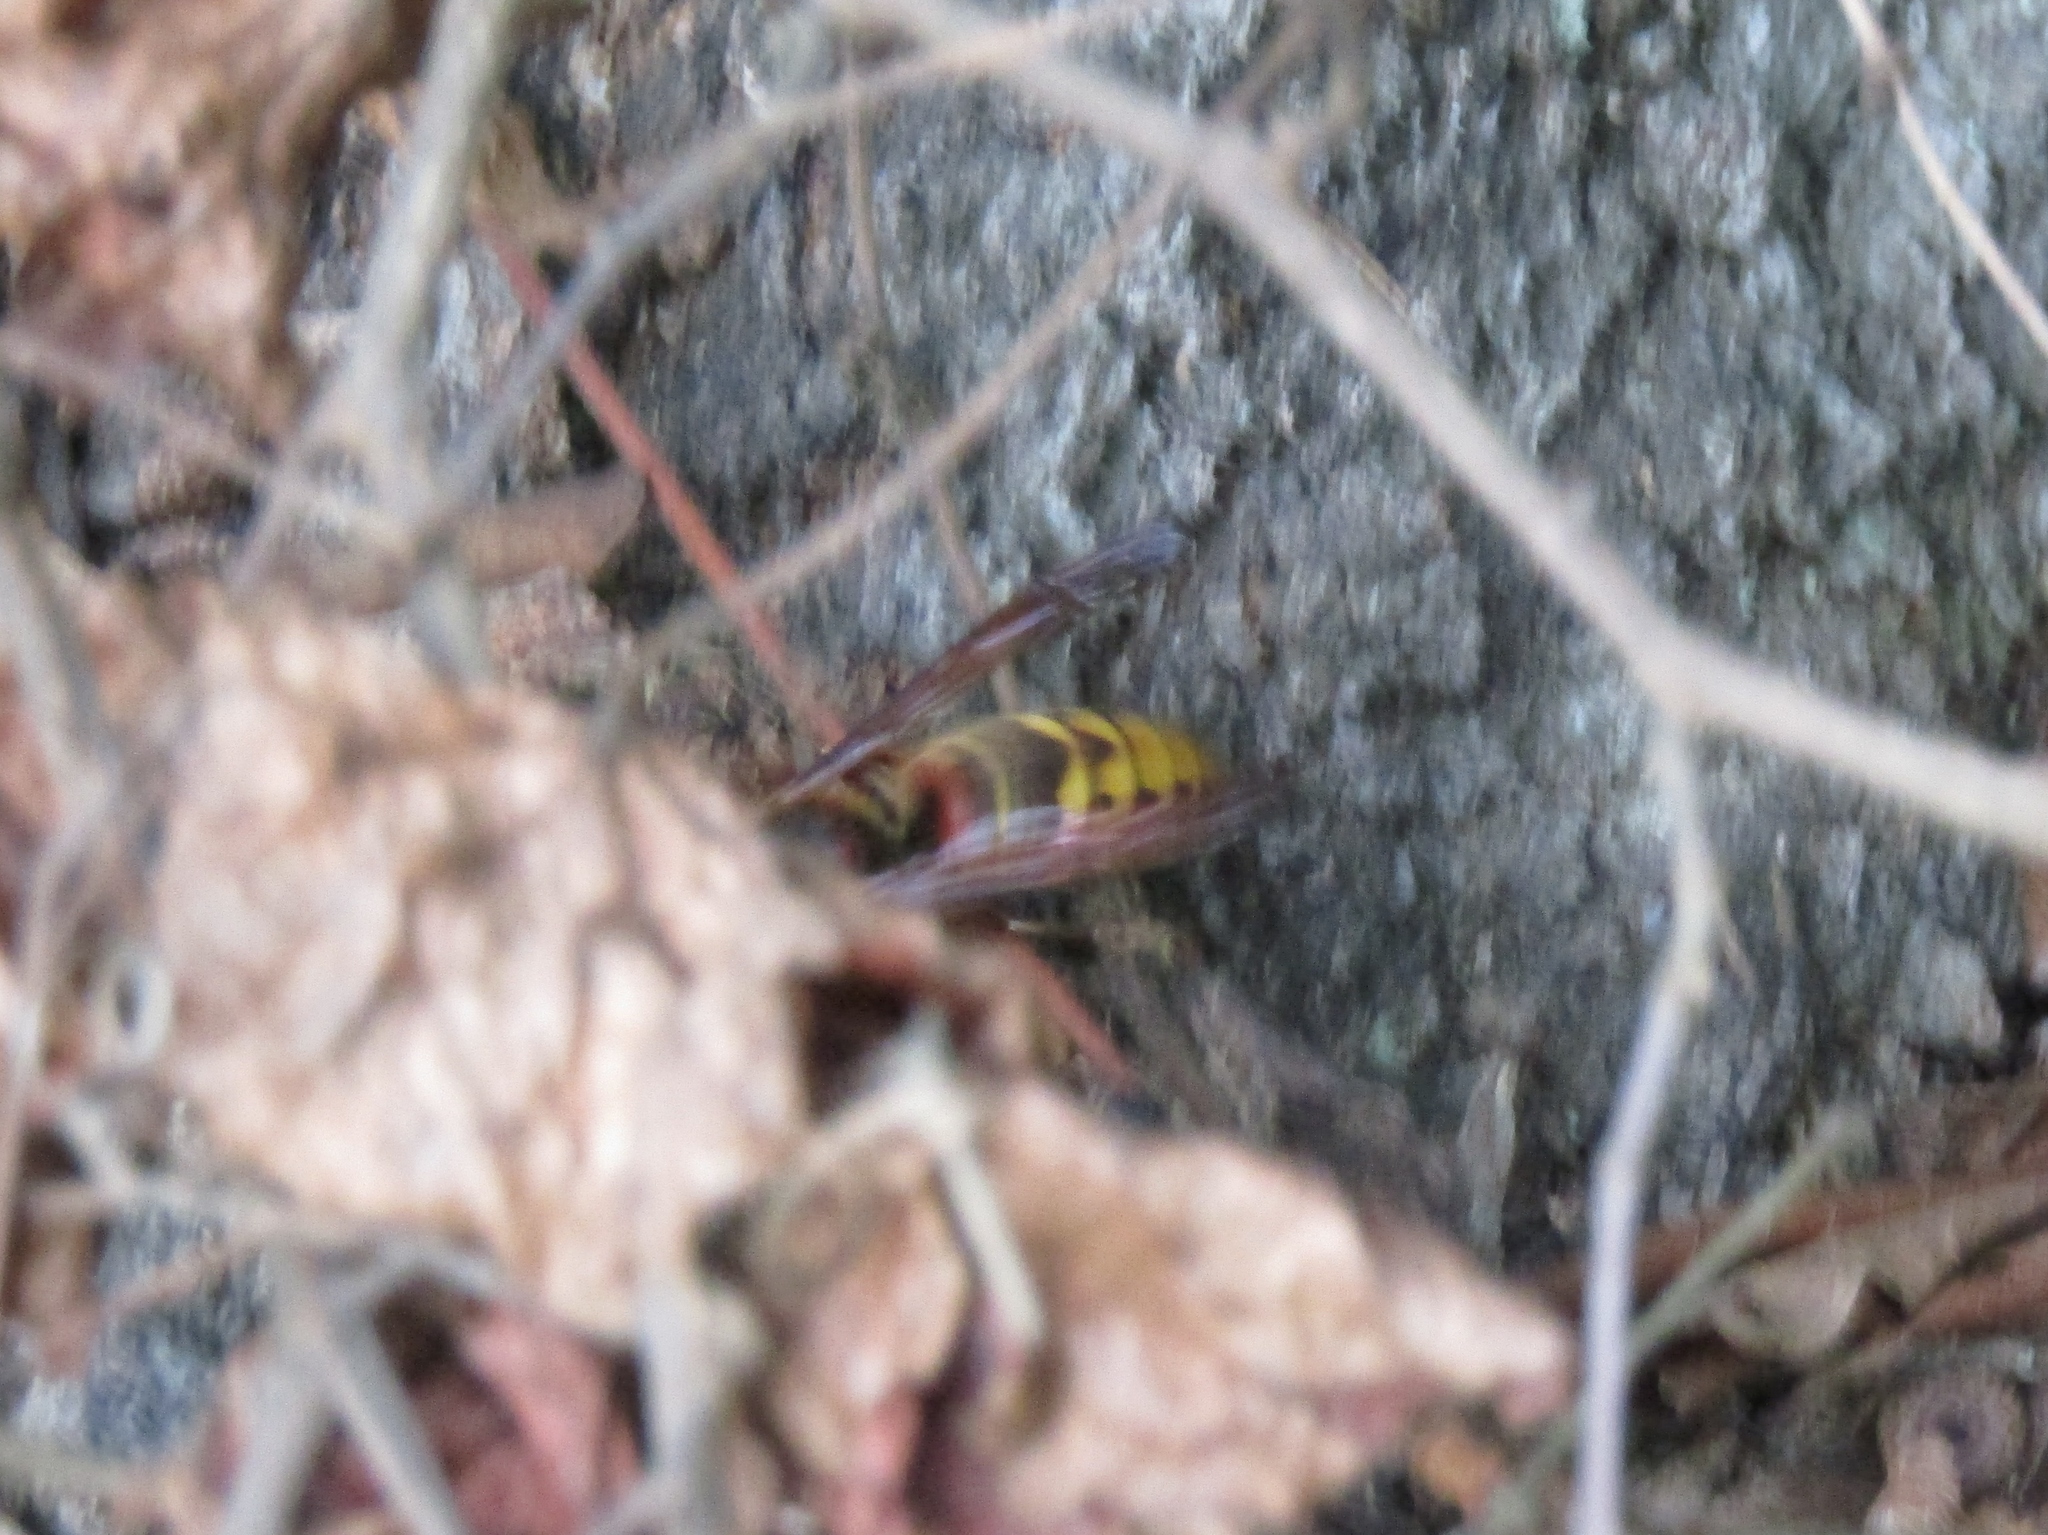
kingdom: Animalia
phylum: Arthropoda
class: Insecta
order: Hymenoptera
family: Vespidae
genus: Vespa
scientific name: Vespa crabro
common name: Hornet
